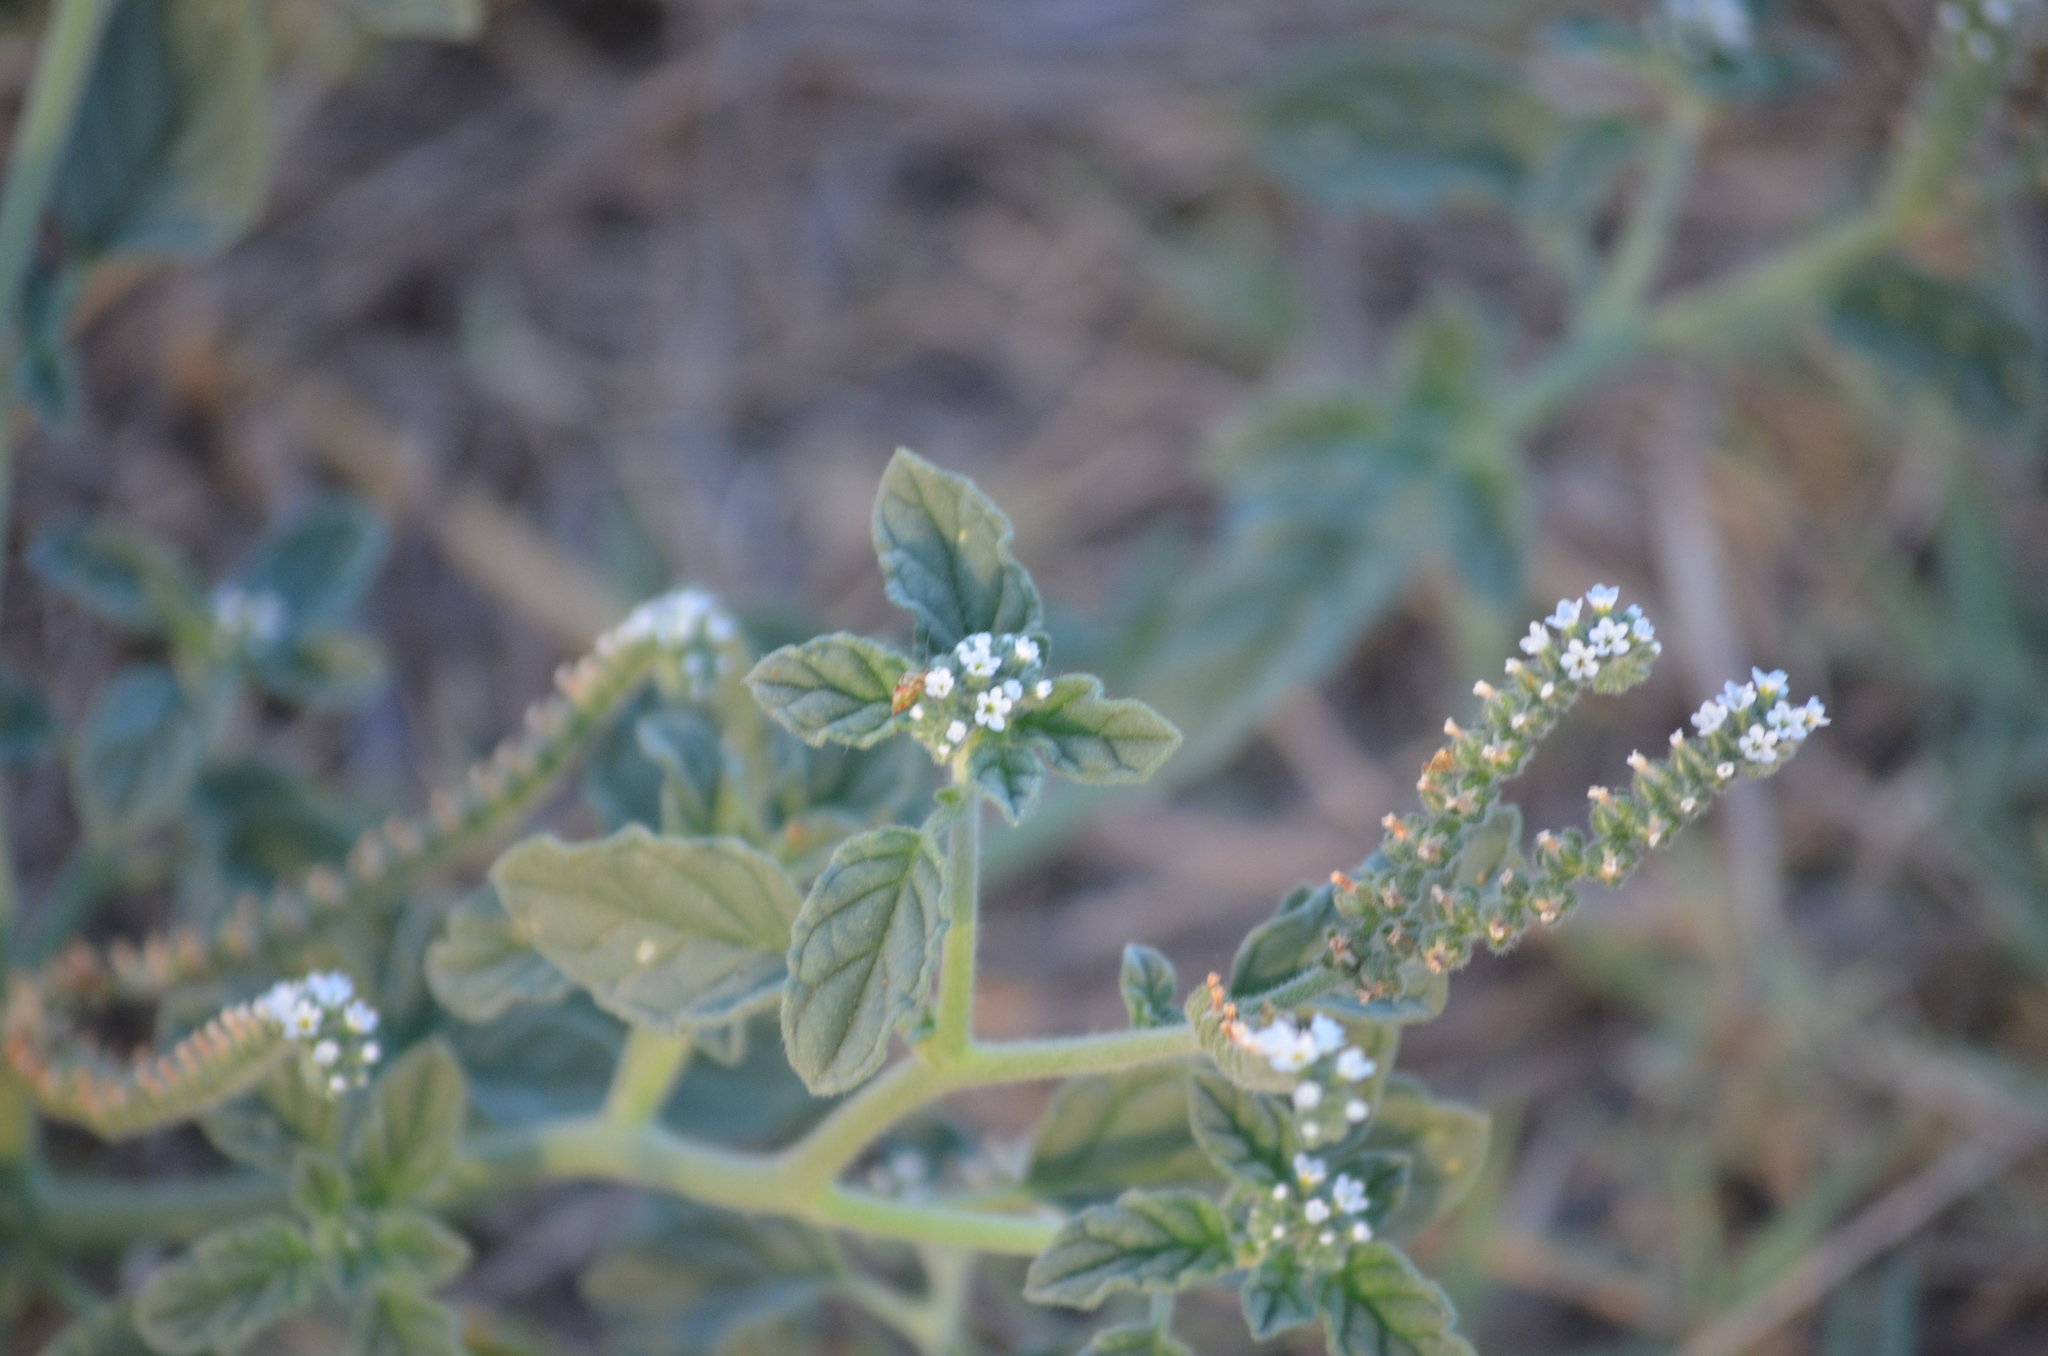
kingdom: Plantae
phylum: Tracheophyta
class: Magnoliopsida
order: Boraginales
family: Heliotropiaceae
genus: Heliotropium
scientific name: Heliotropium europaeum
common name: European heliotrope
